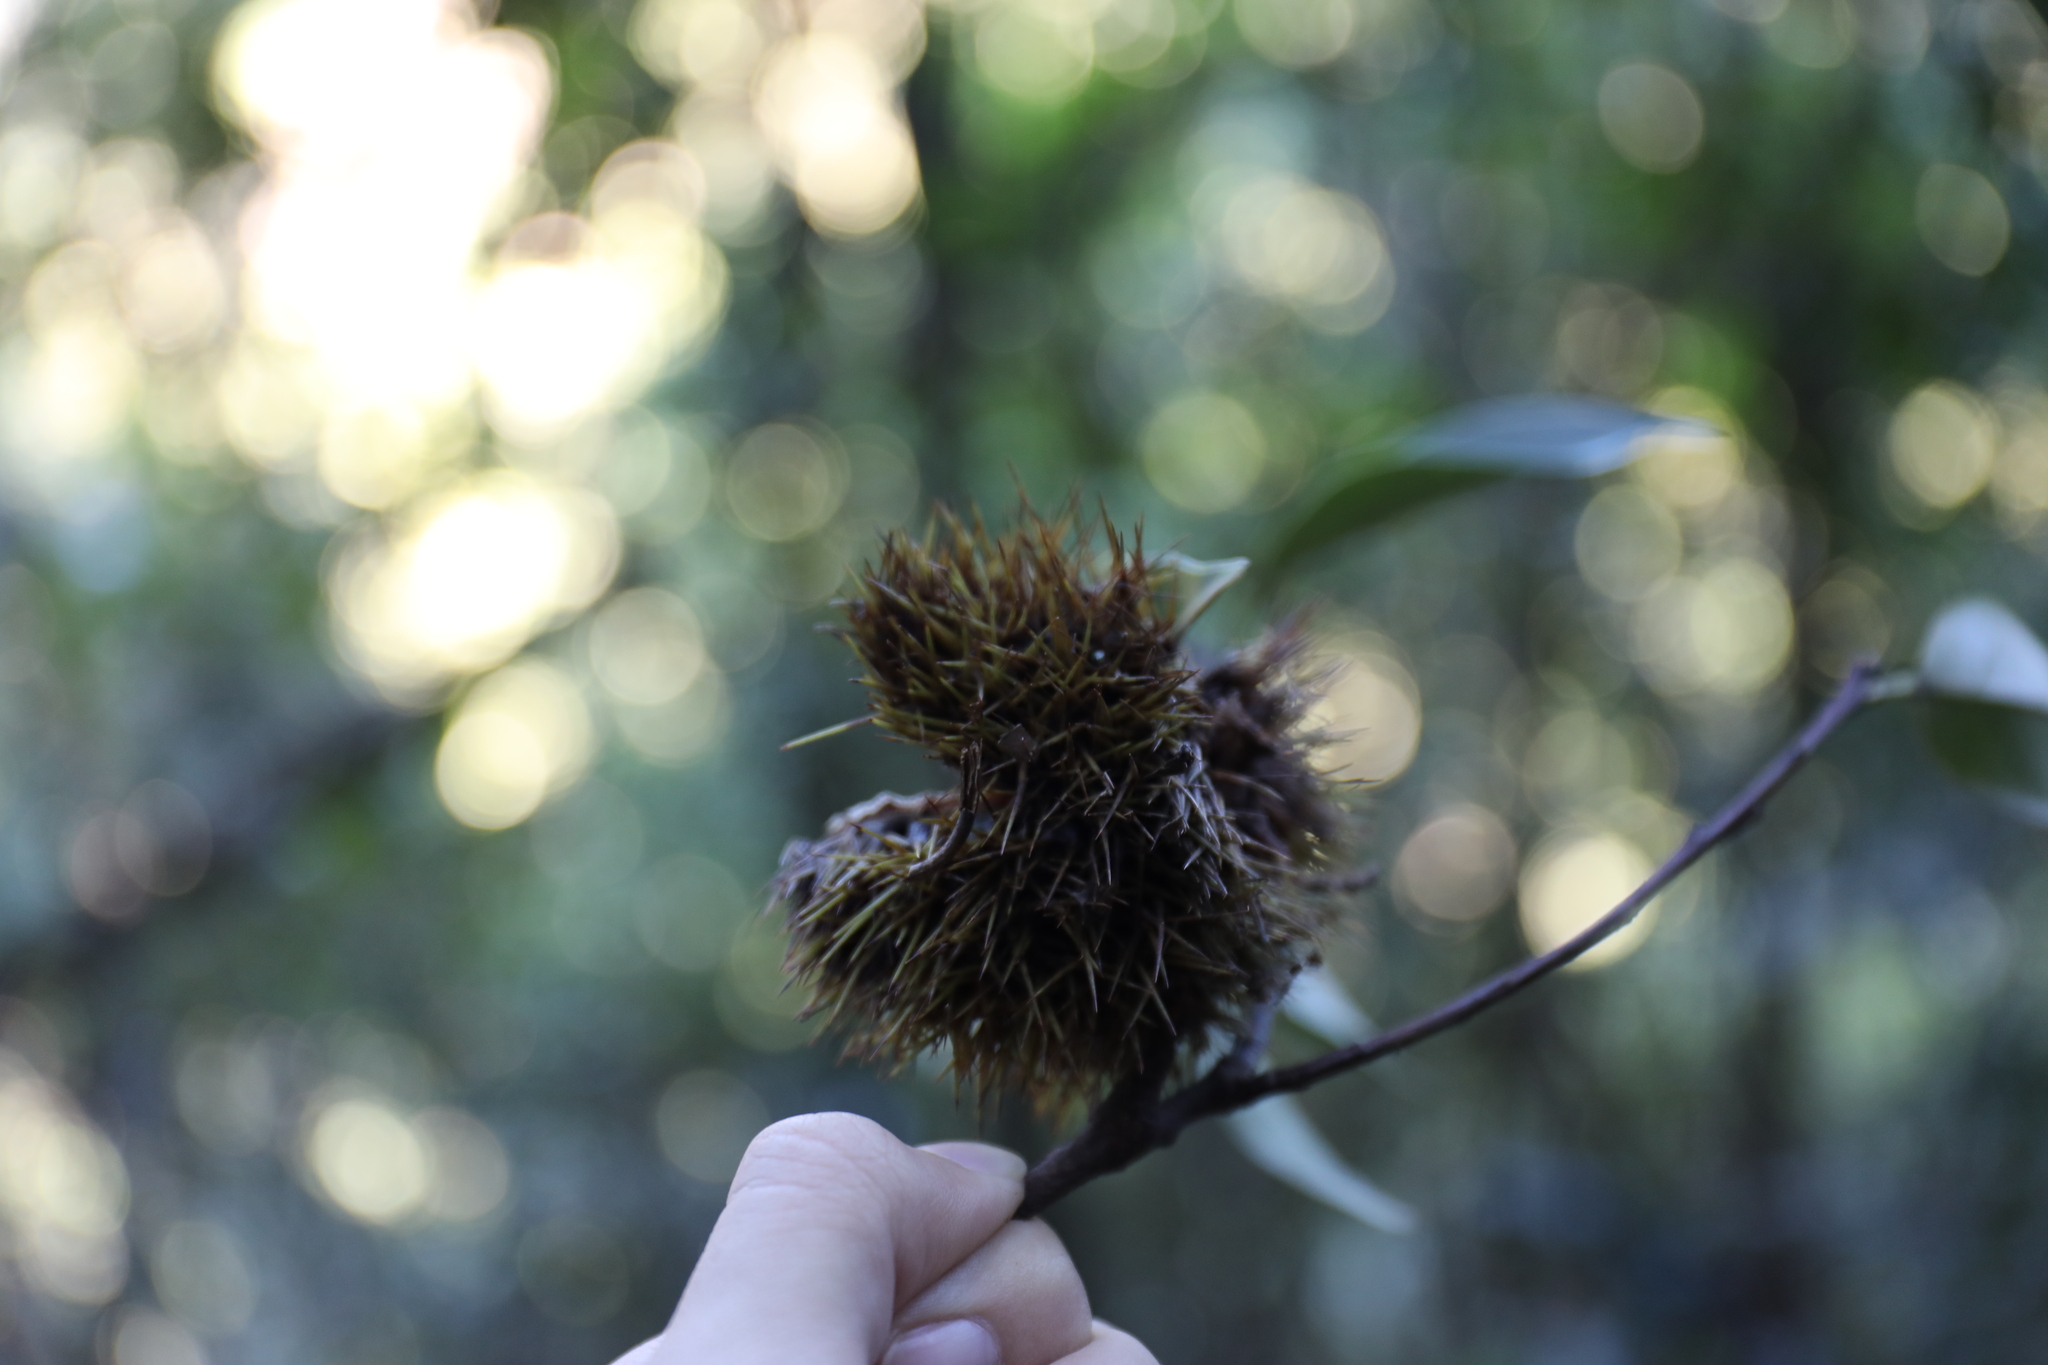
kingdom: Plantae
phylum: Tracheophyta
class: Magnoliopsida
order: Fagales
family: Fagaceae
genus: Castanopsis
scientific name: Castanopsis kawakamii
